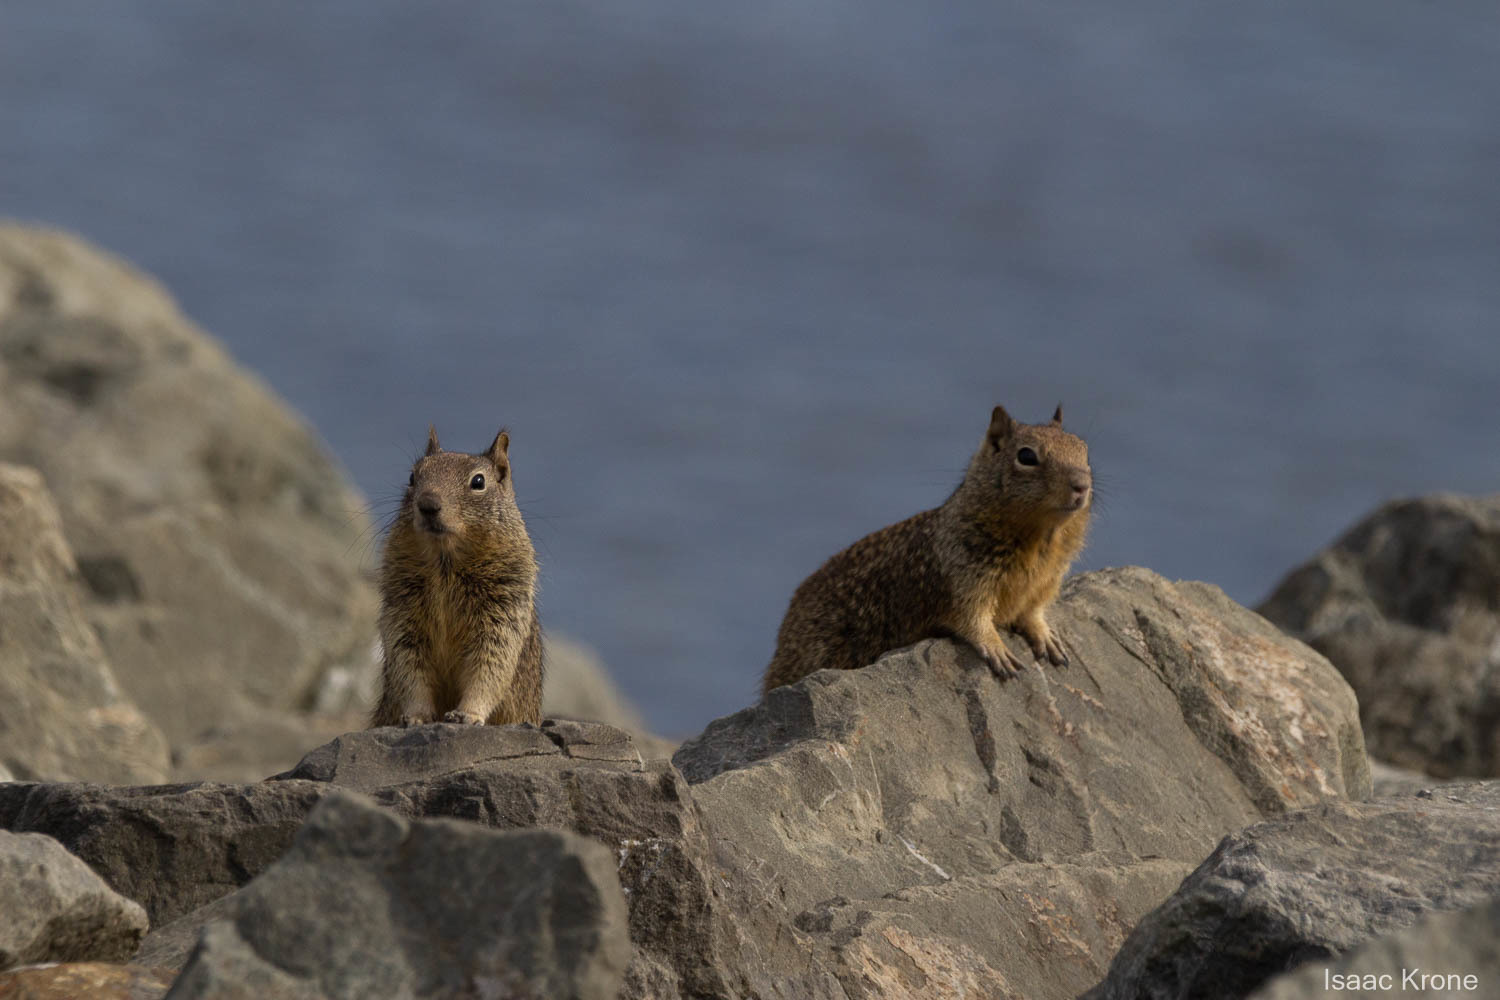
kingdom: Animalia
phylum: Chordata
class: Mammalia
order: Rodentia
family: Sciuridae
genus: Otospermophilus
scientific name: Otospermophilus beecheyi
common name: California ground squirrel
